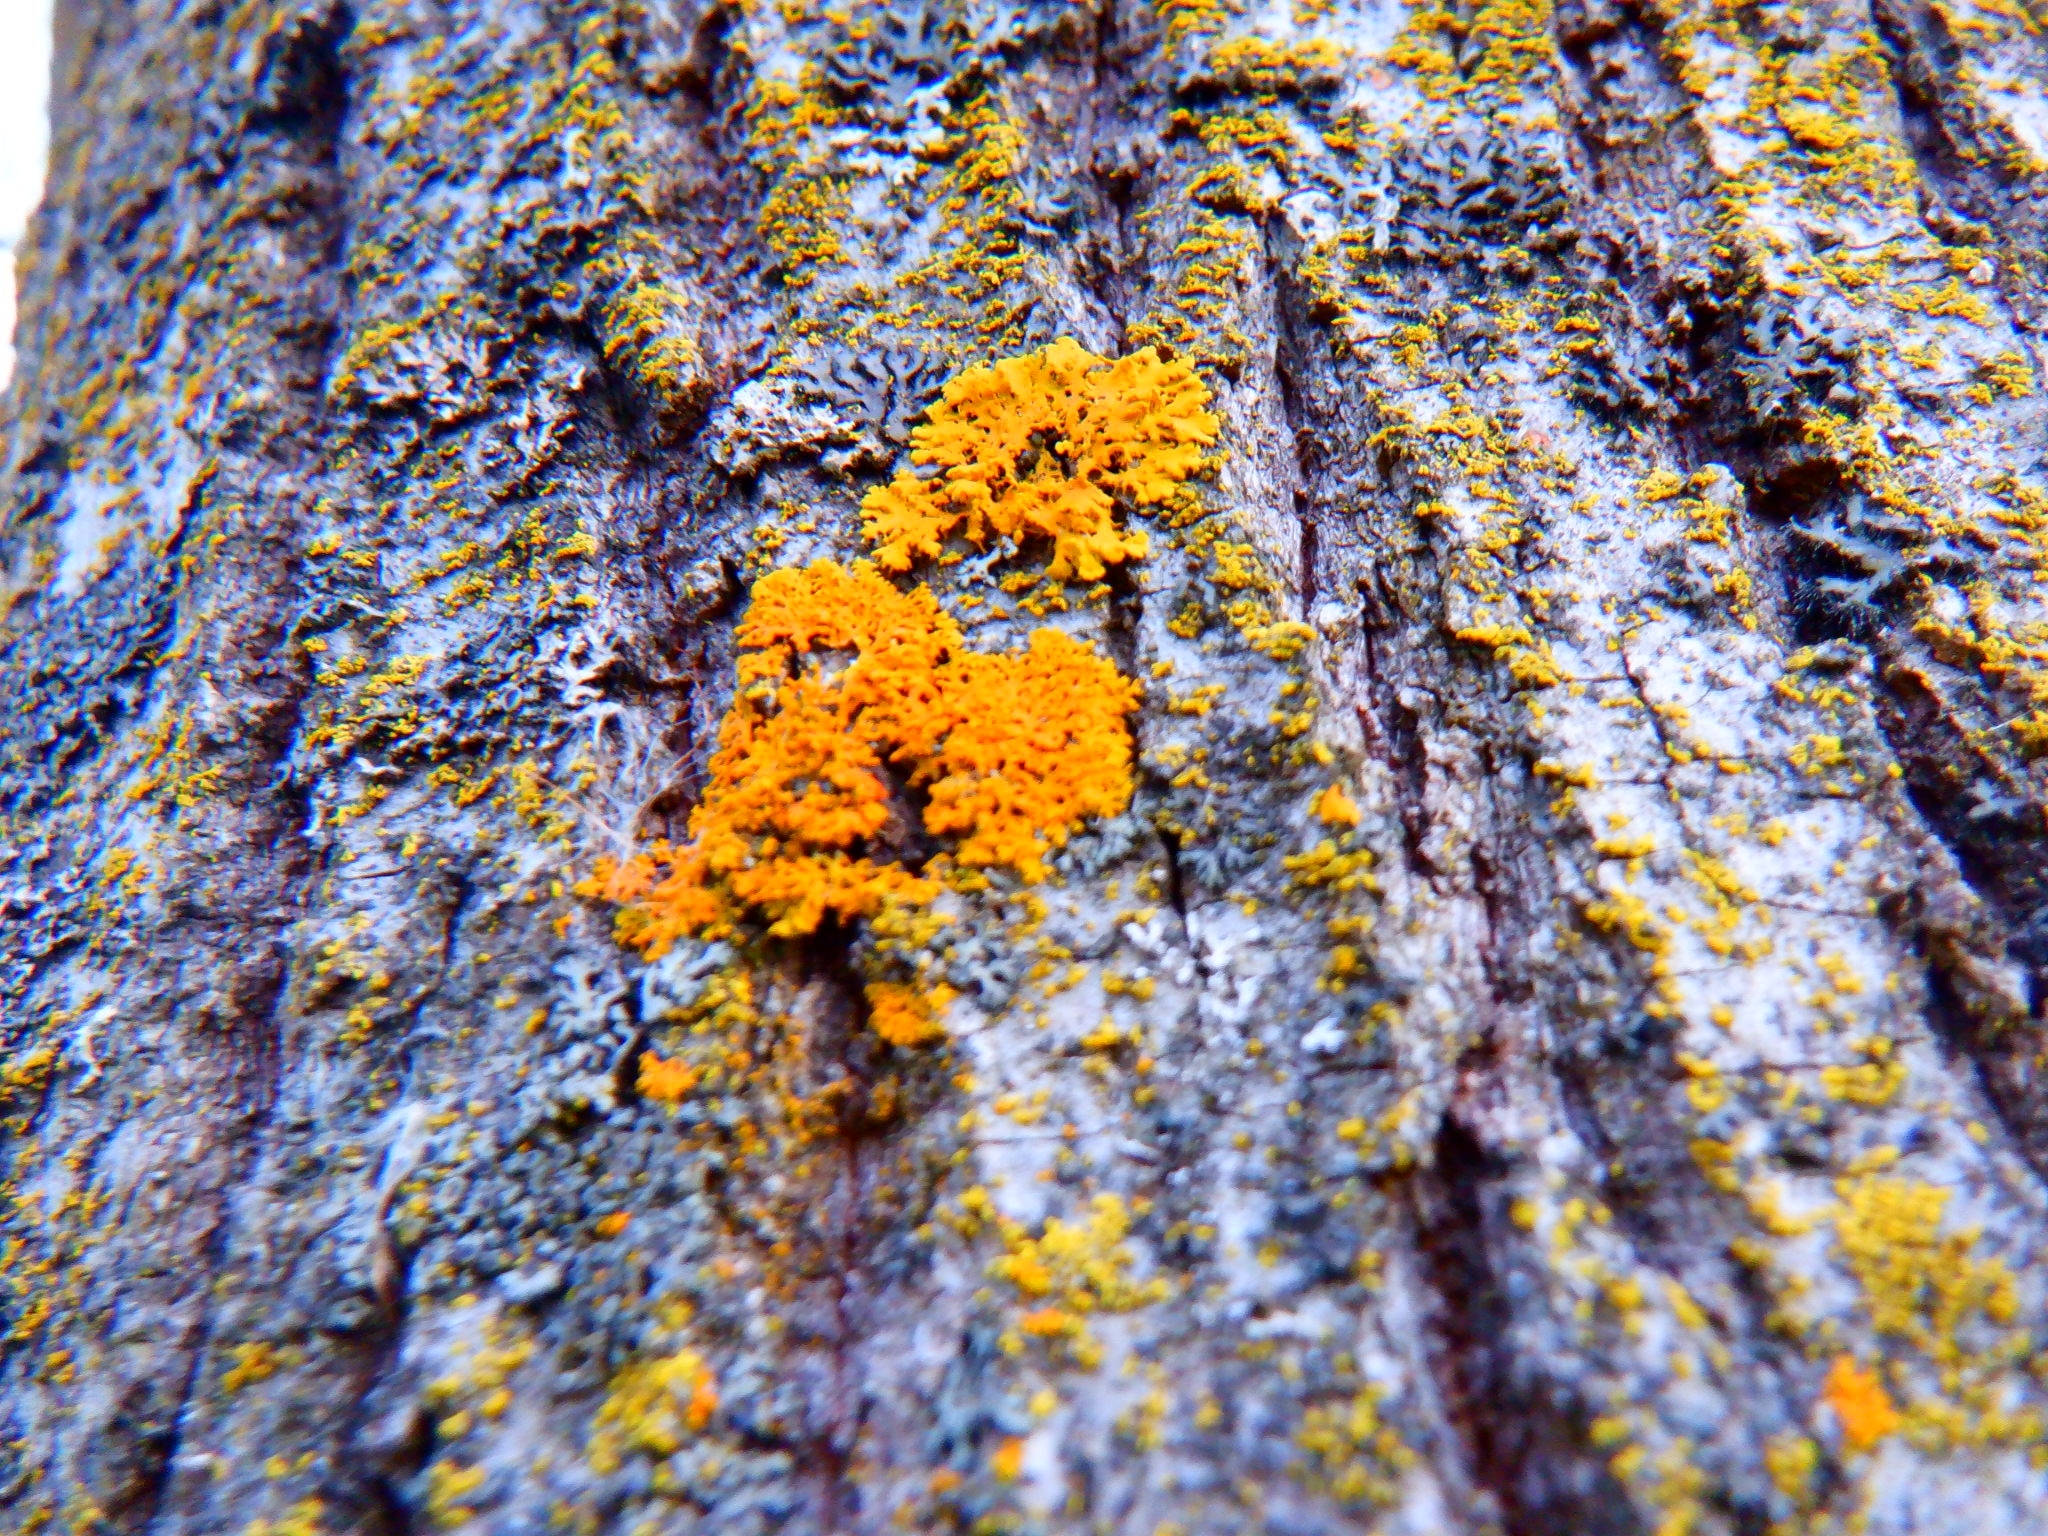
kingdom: Fungi
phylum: Ascomycota
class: Lecanoromycetes
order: Teloschistales
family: Teloschistaceae
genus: Gallowayella
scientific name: Gallowayella weberi
